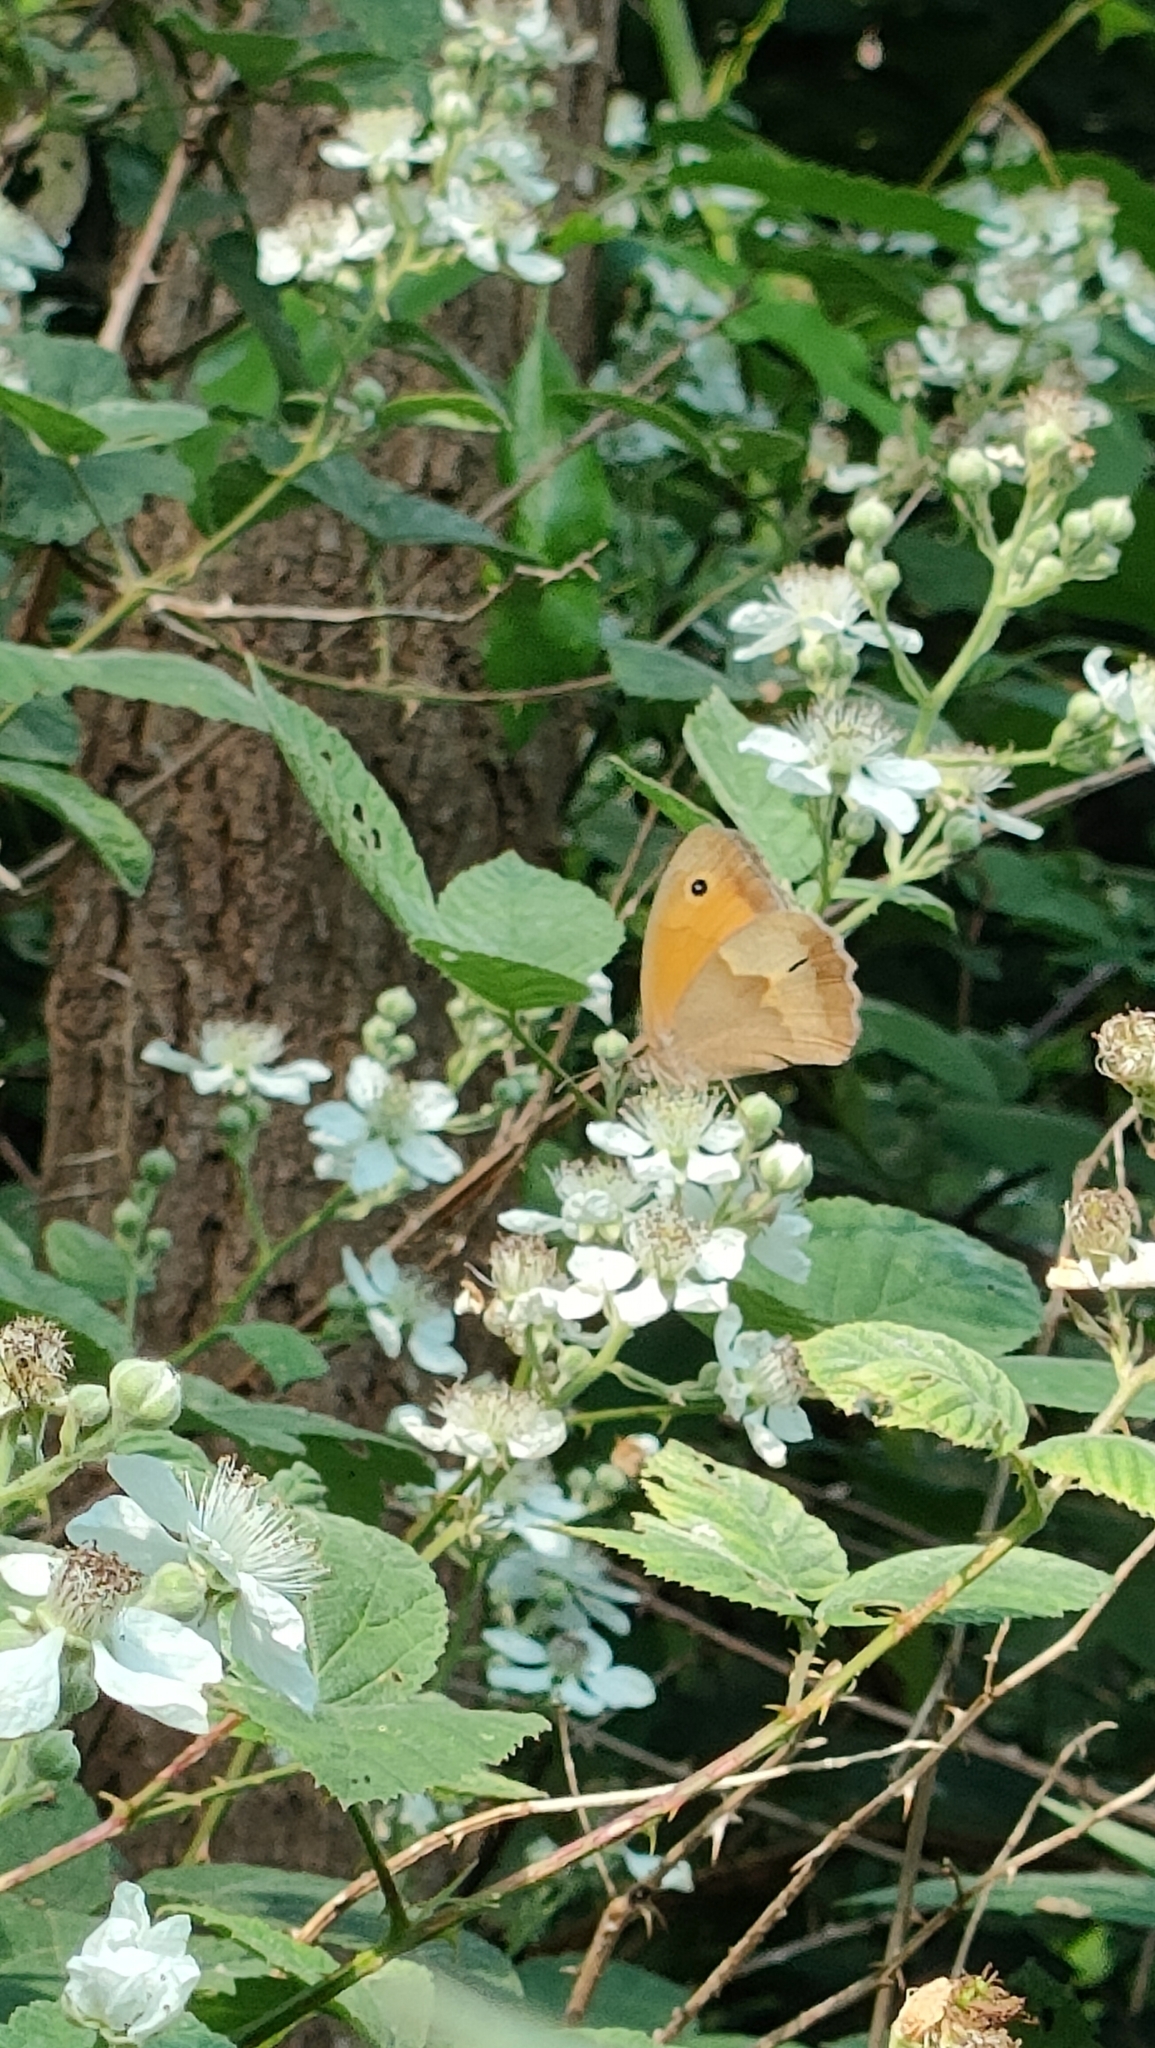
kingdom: Animalia
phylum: Arthropoda
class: Insecta
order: Lepidoptera
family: Nymphalidae
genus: Maniola
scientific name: Maniola jurtina
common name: Meadow brown
